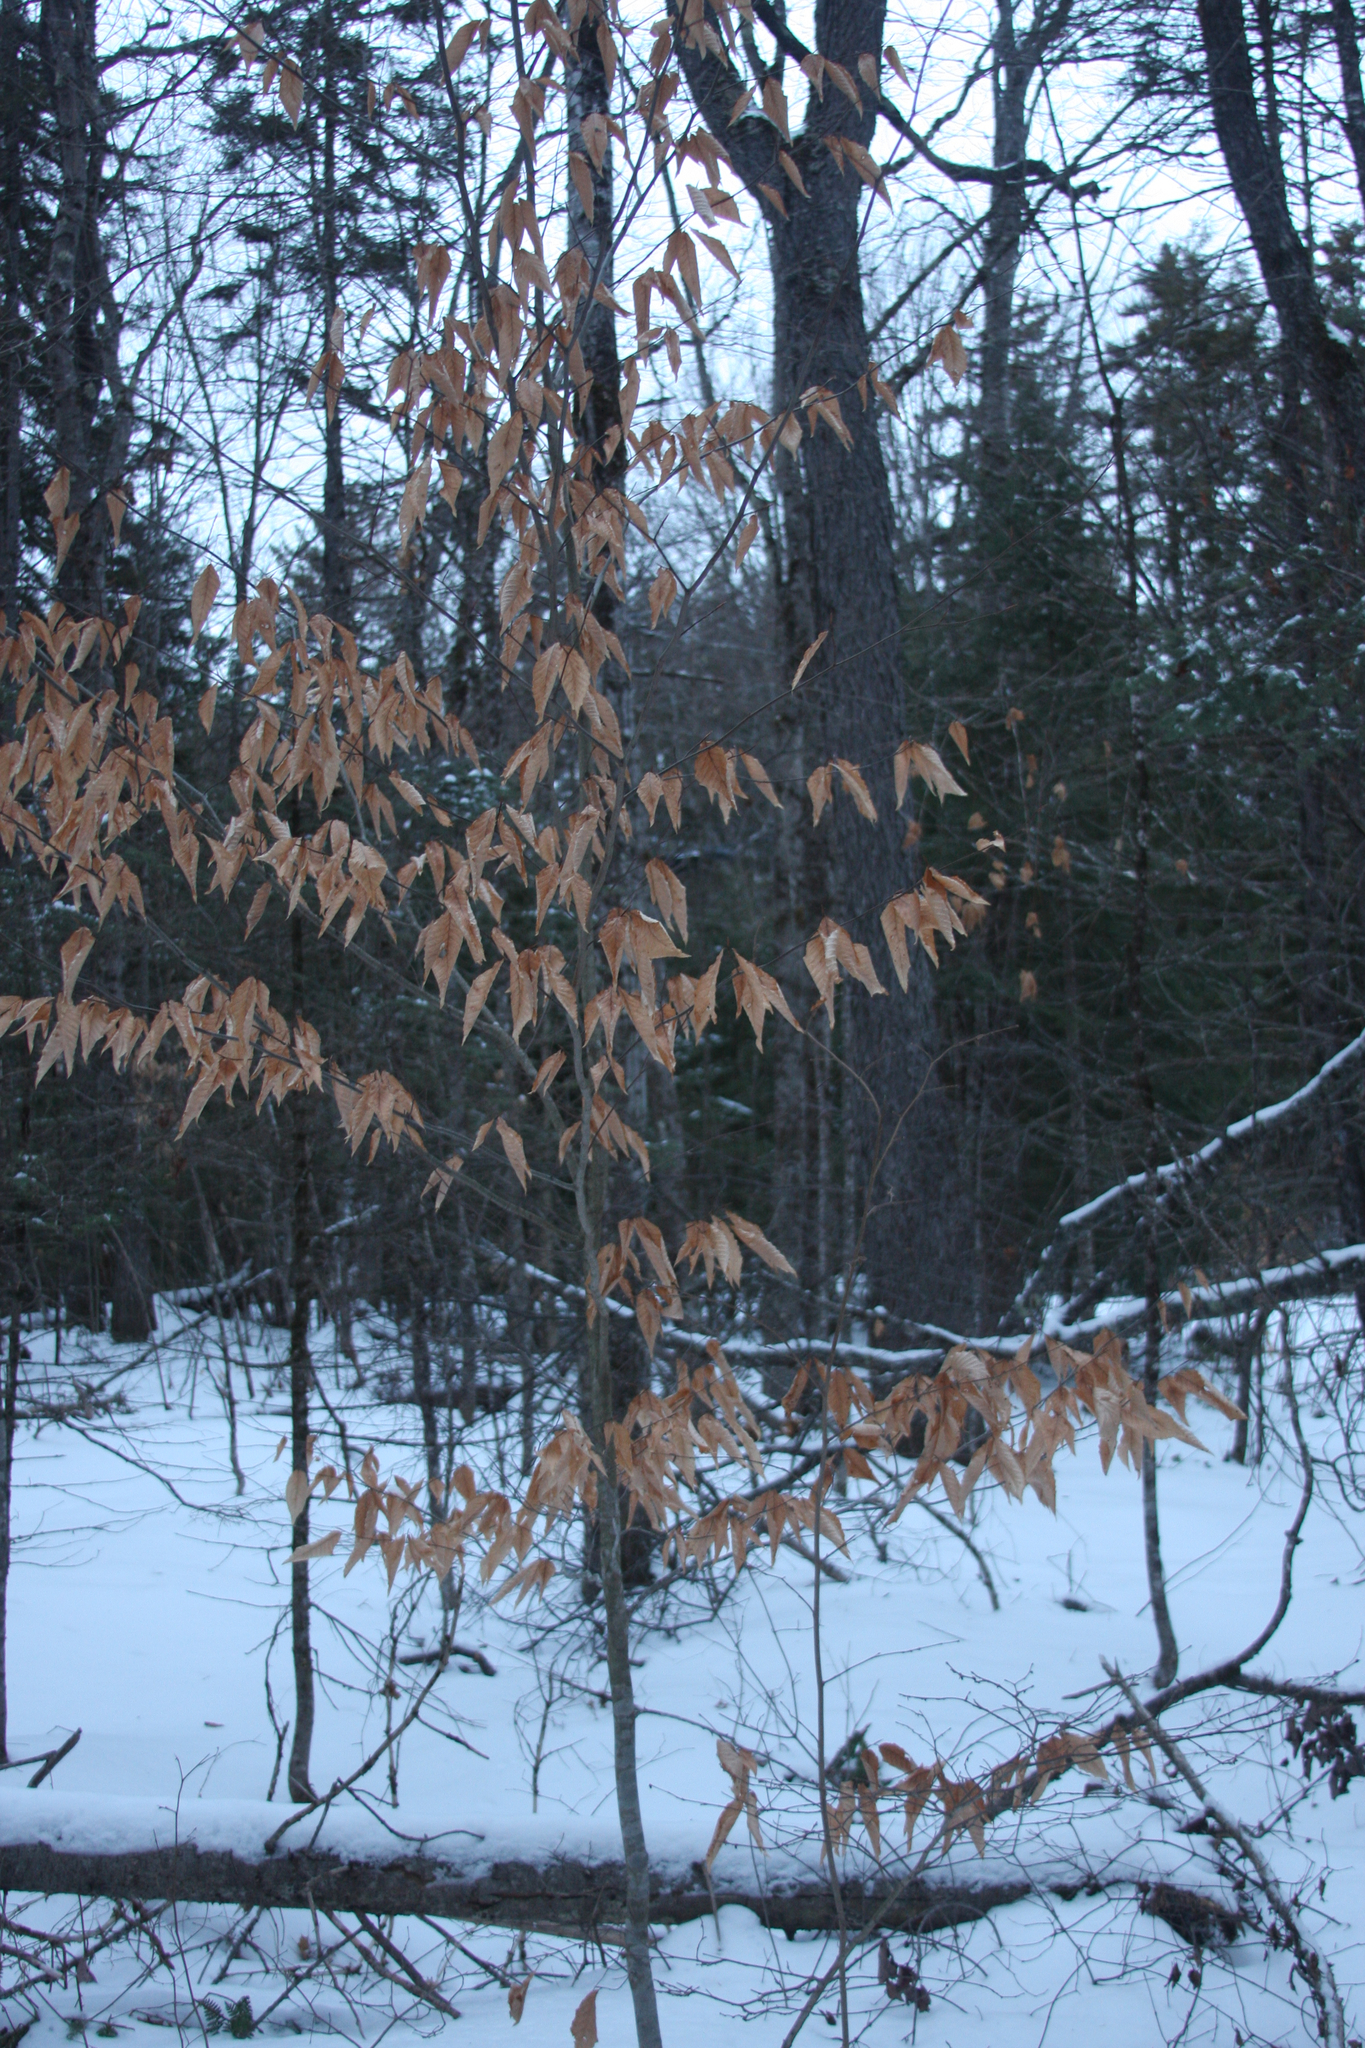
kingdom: Plantae
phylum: Tracheophyta
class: Magnoliopsida
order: Fagales
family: Fagaceae
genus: Fagus
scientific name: Fagus grandifolia
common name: American beech
